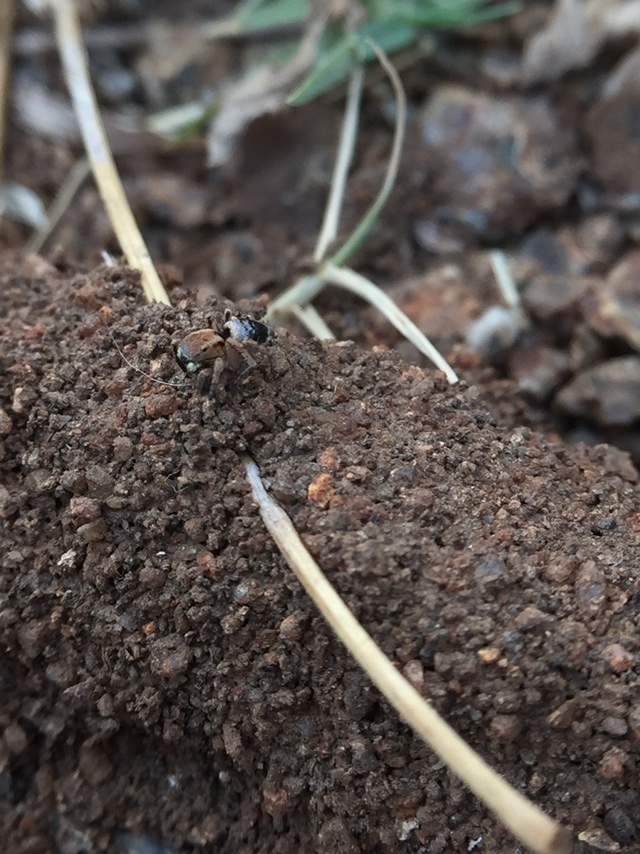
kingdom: Animalia
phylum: Arthropoda
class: Arachnida
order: Araneae
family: Salticidae
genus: Stenaelurillus
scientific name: Stenaelurillus sarojinae
